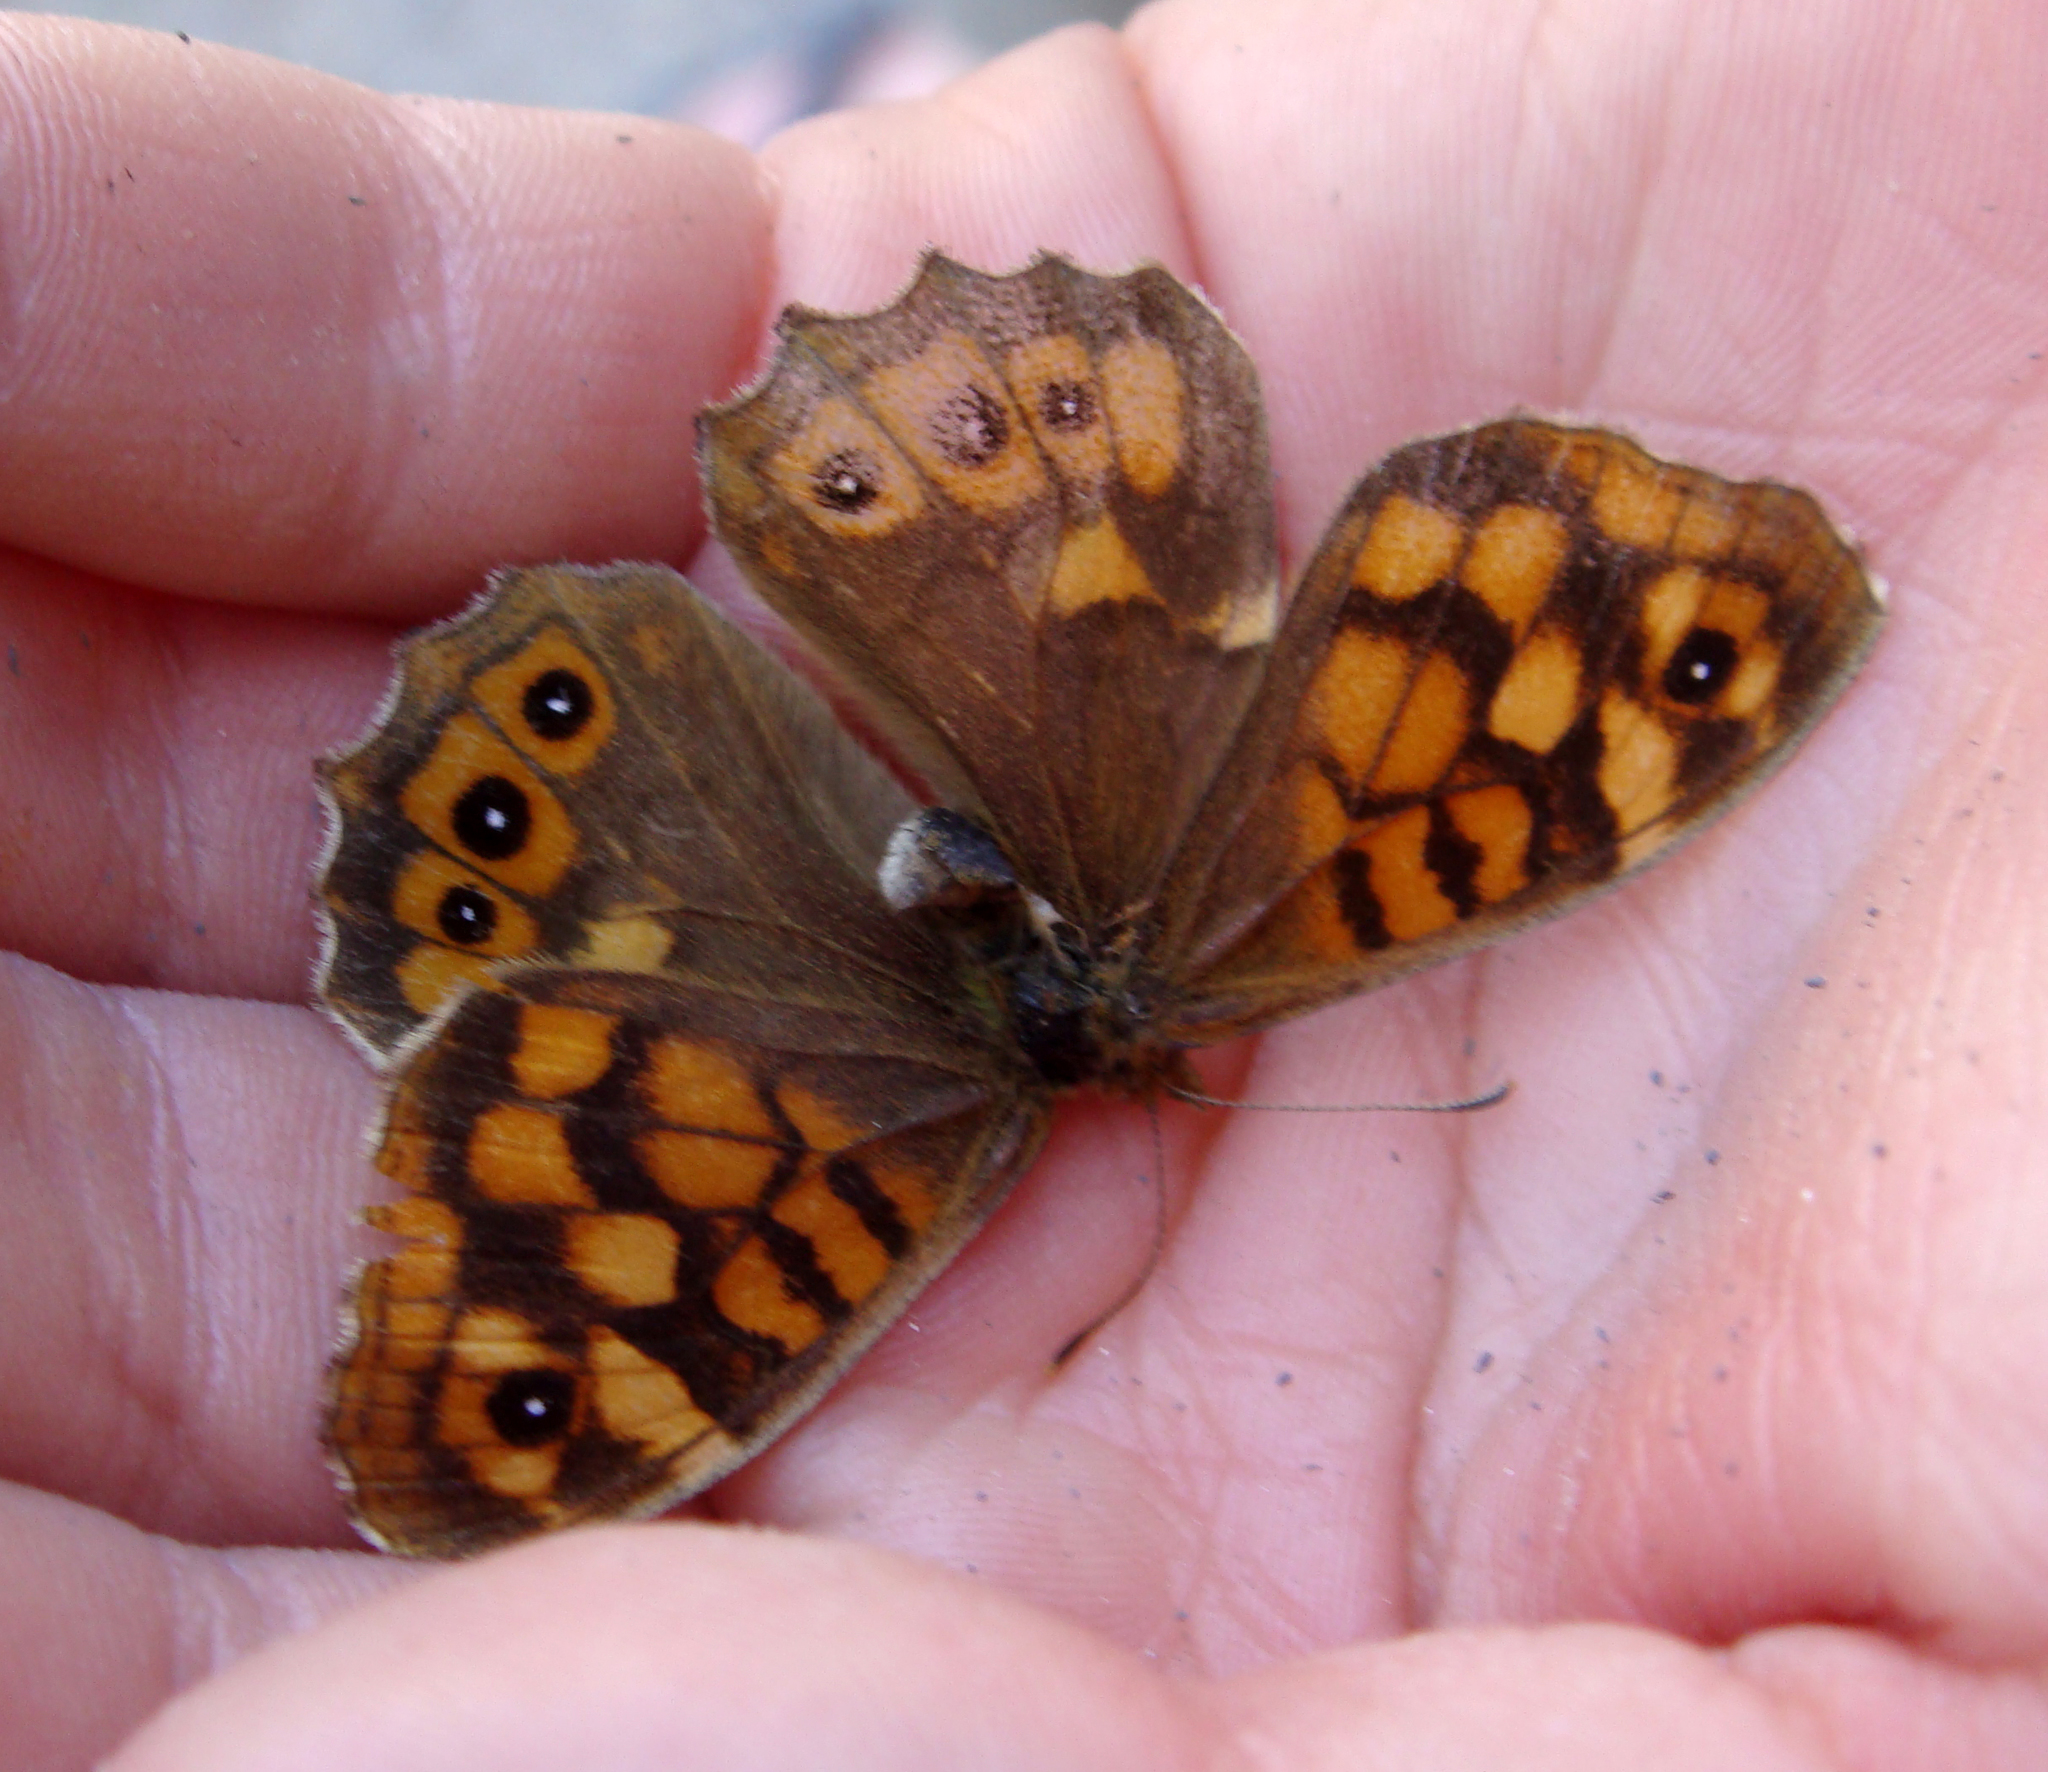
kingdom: Animalia
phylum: Arthropoda
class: Insecta
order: Lepidoptera
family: Nymphalidae
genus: Pararge
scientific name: Pararge aegeria
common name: Speckled wood
